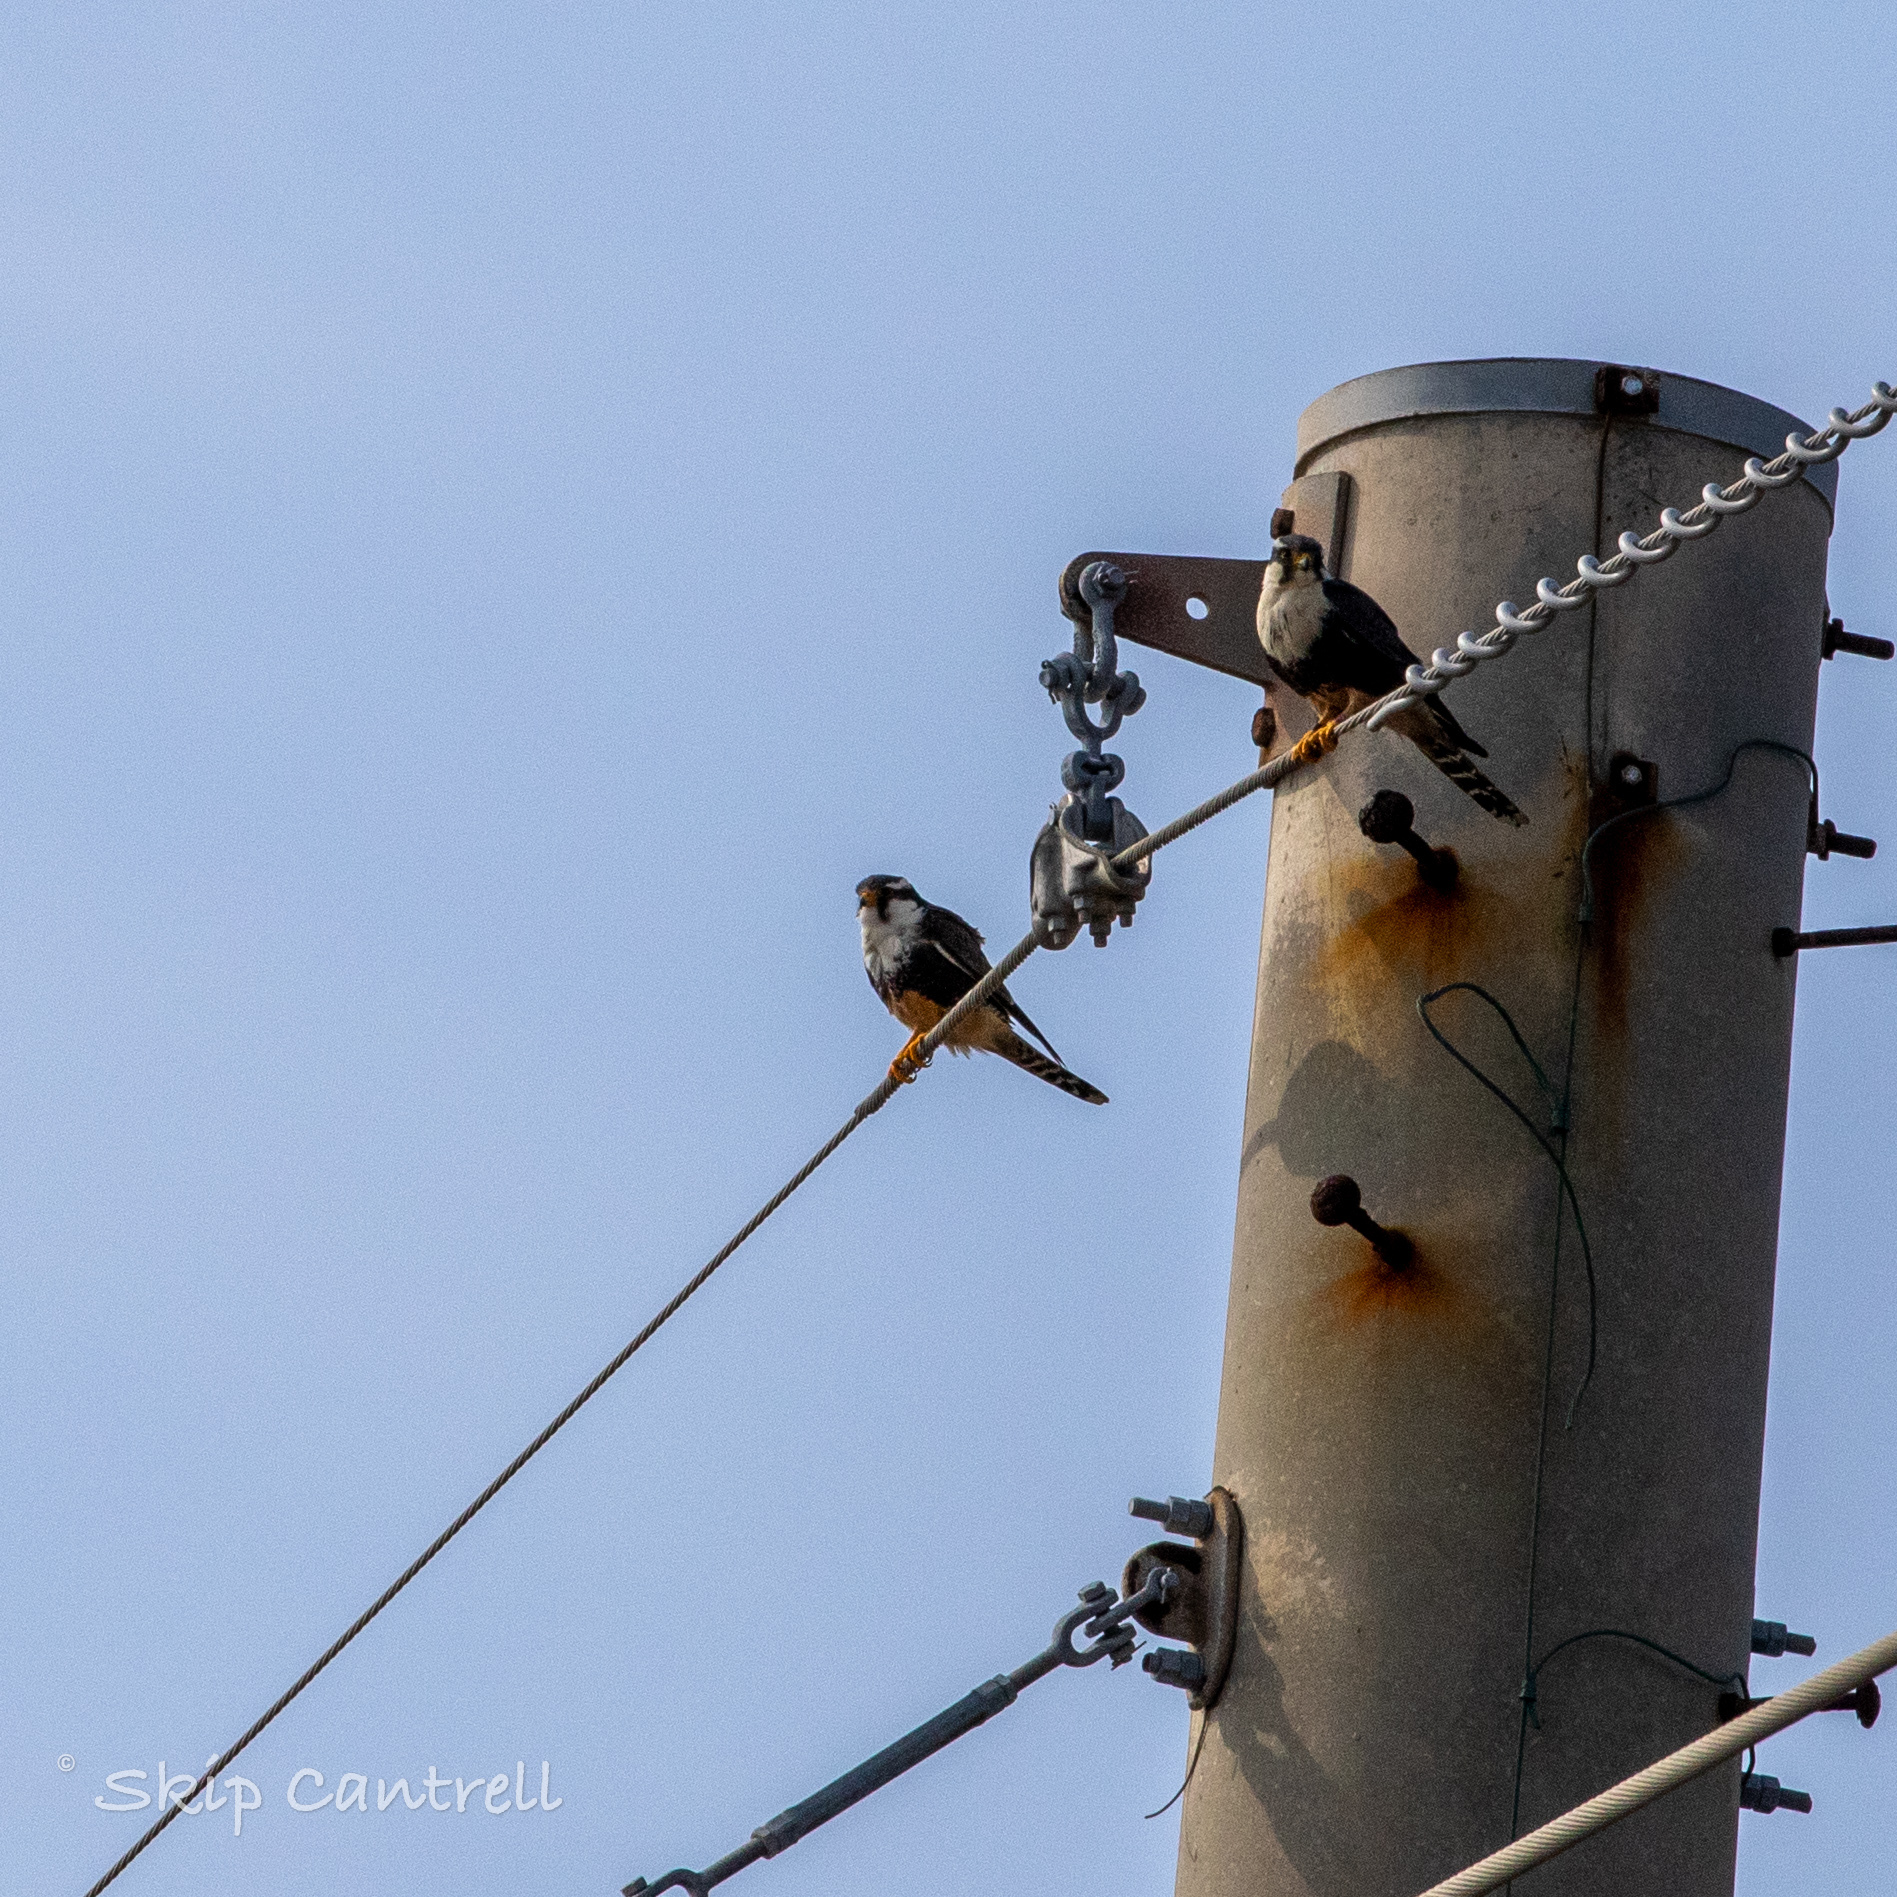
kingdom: Animalia
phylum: Chordata
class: Aves
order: Falconiformes
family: Falconidae
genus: Falco
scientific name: Falco femoralis
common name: Aplomado falcon
